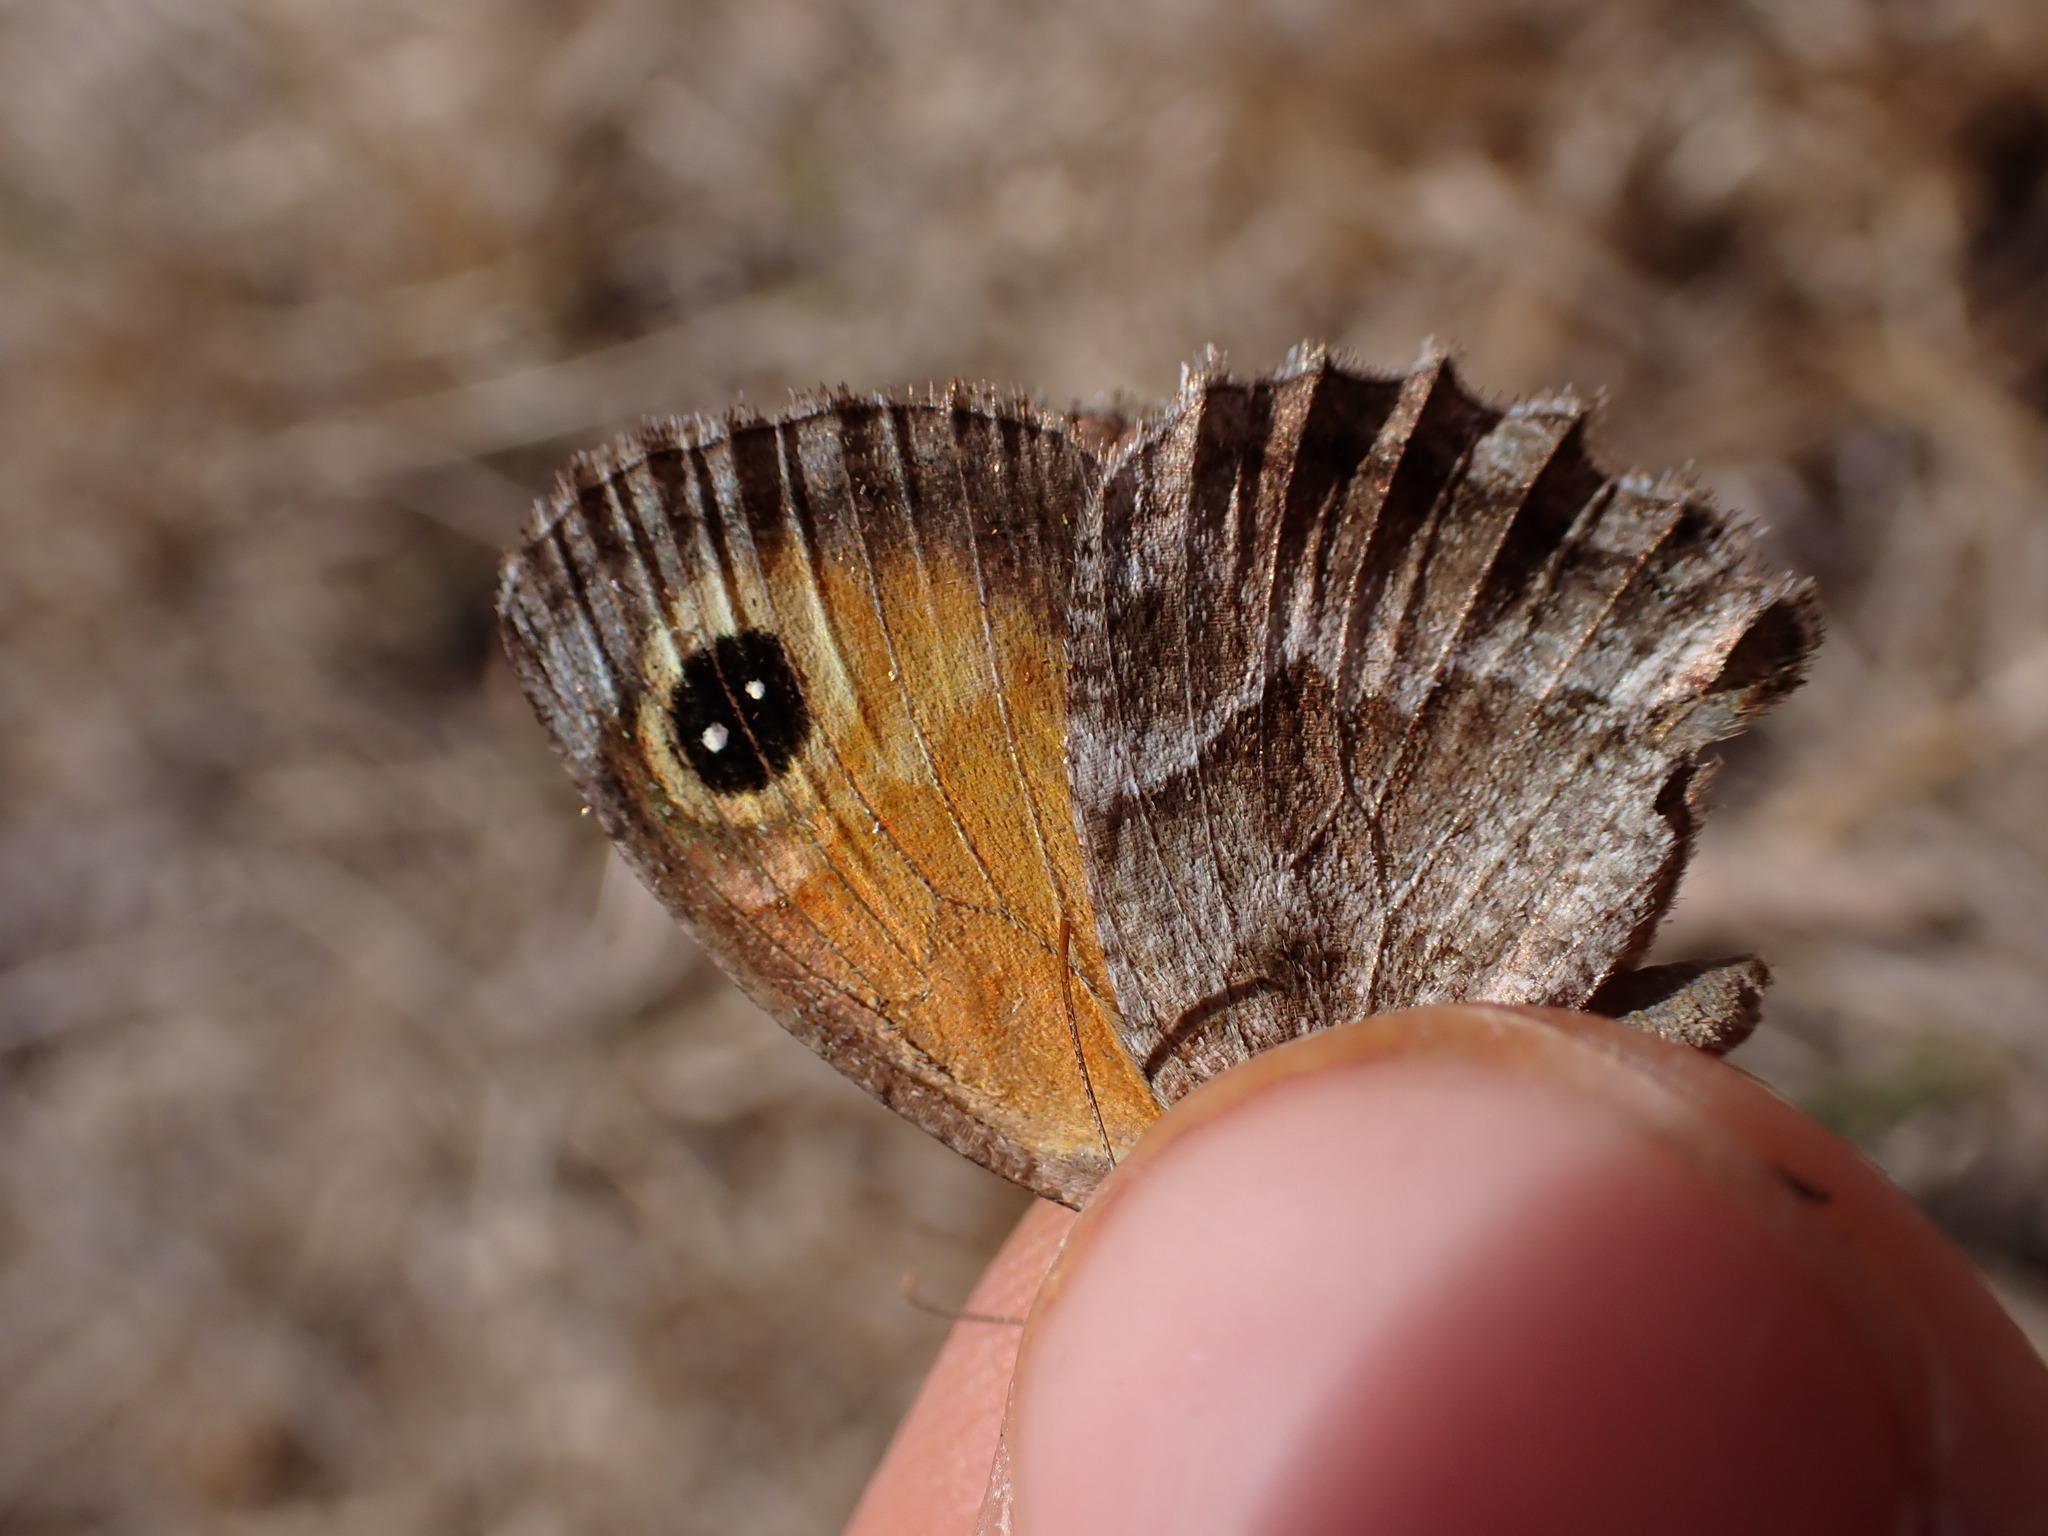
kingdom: Animalia
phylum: Arthropoda
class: Insecta
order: Lepidoptera
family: Nymphalidae
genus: Pyronia
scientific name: Pyronia cecilia
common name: Southern gatekeeper
